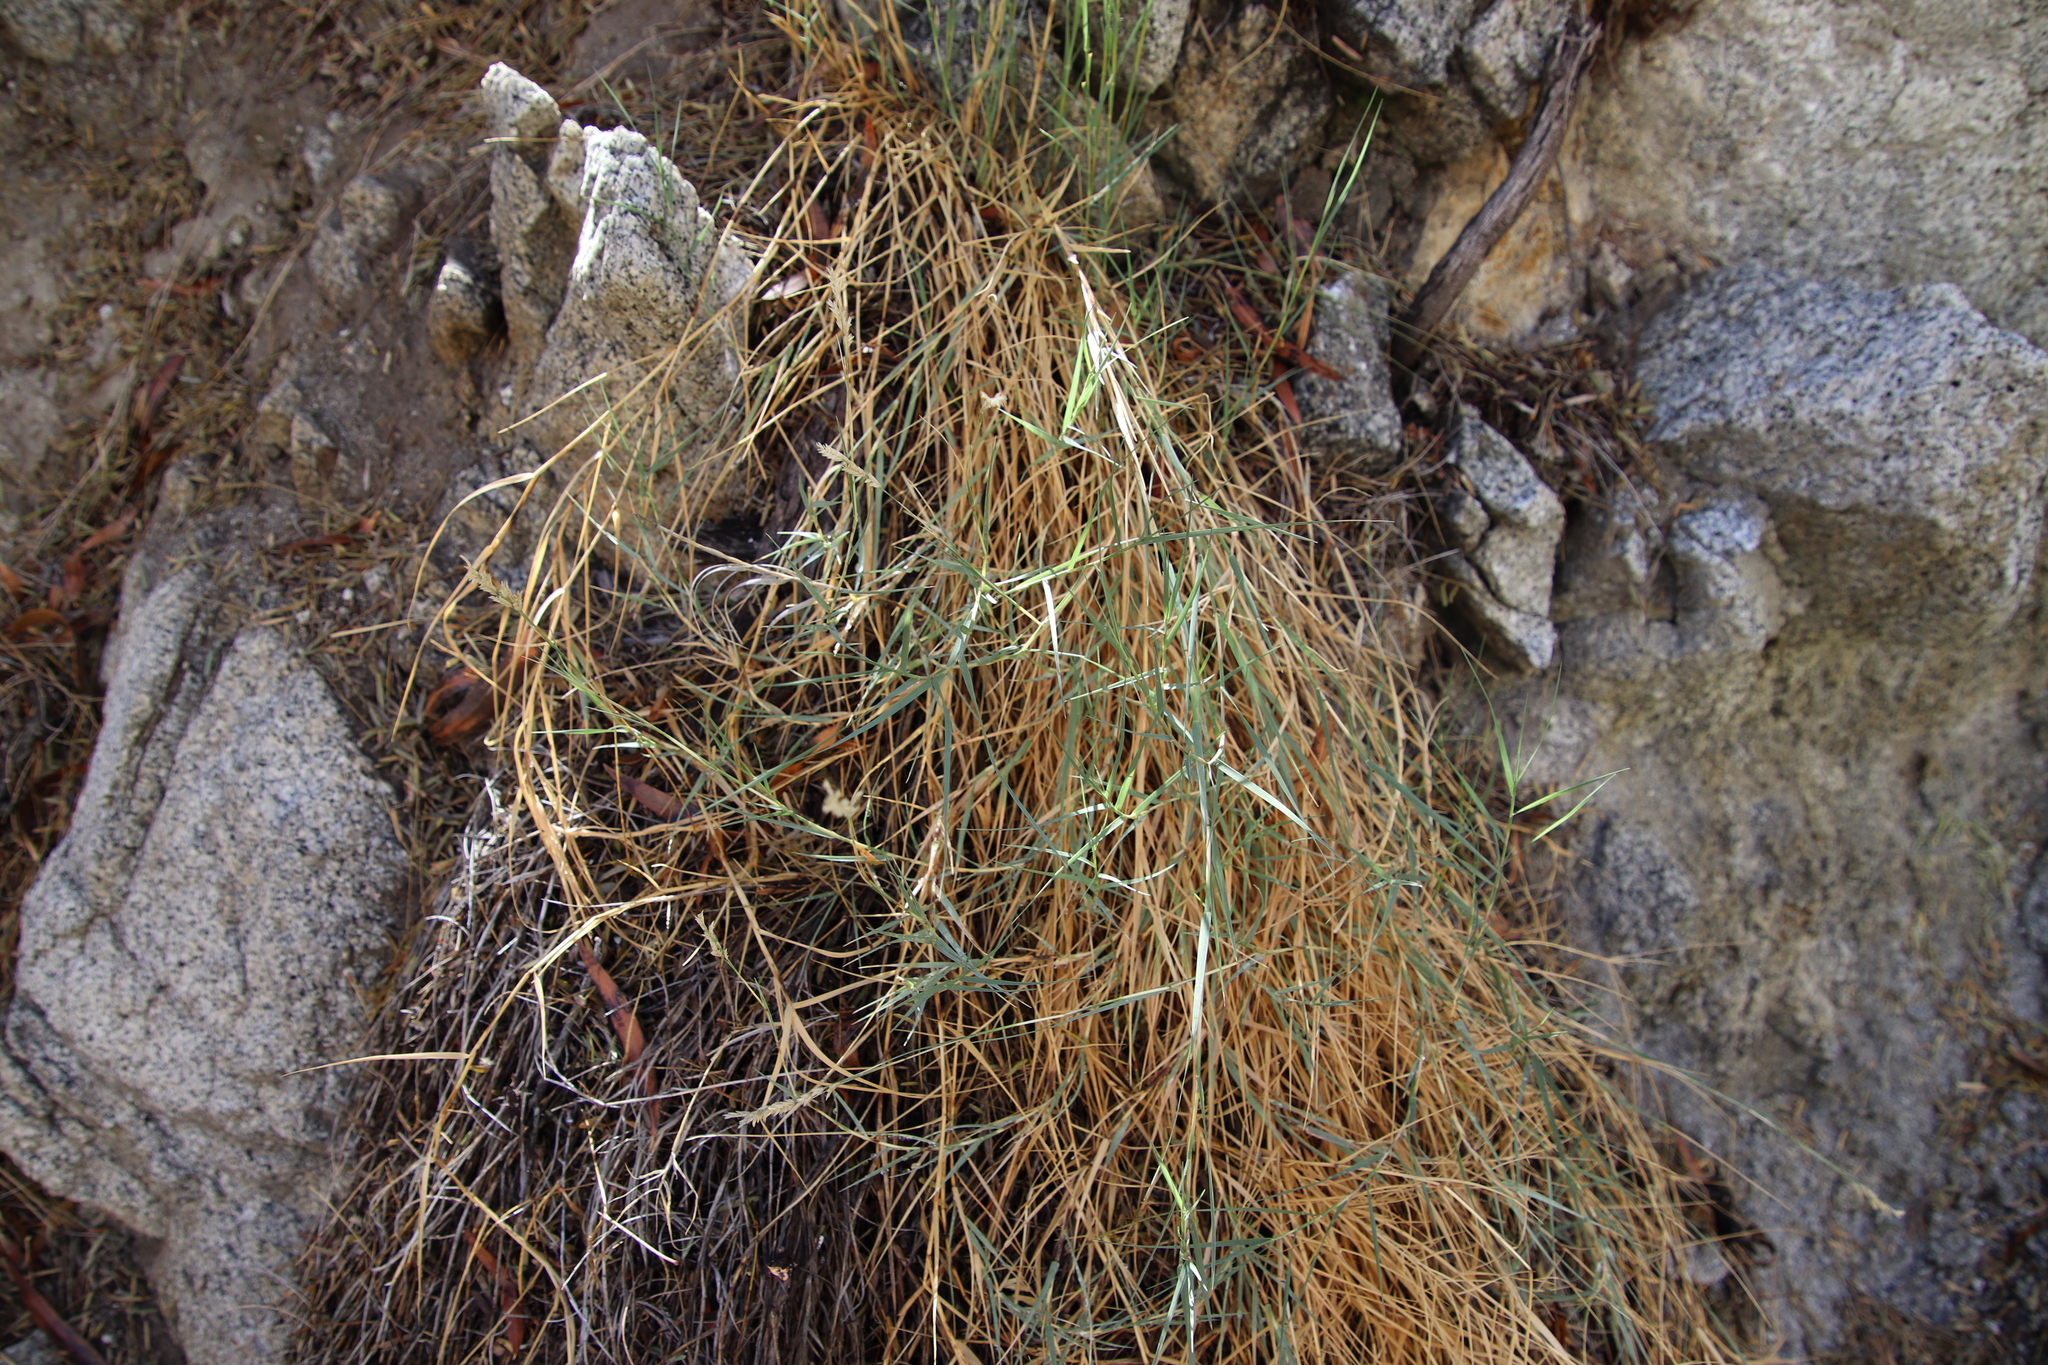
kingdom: Plantae
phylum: Tracheophyta
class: Liliopsida
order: Poales
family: Poaceae
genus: Distichlis
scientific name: Distichlis spicata
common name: Saltgrass
